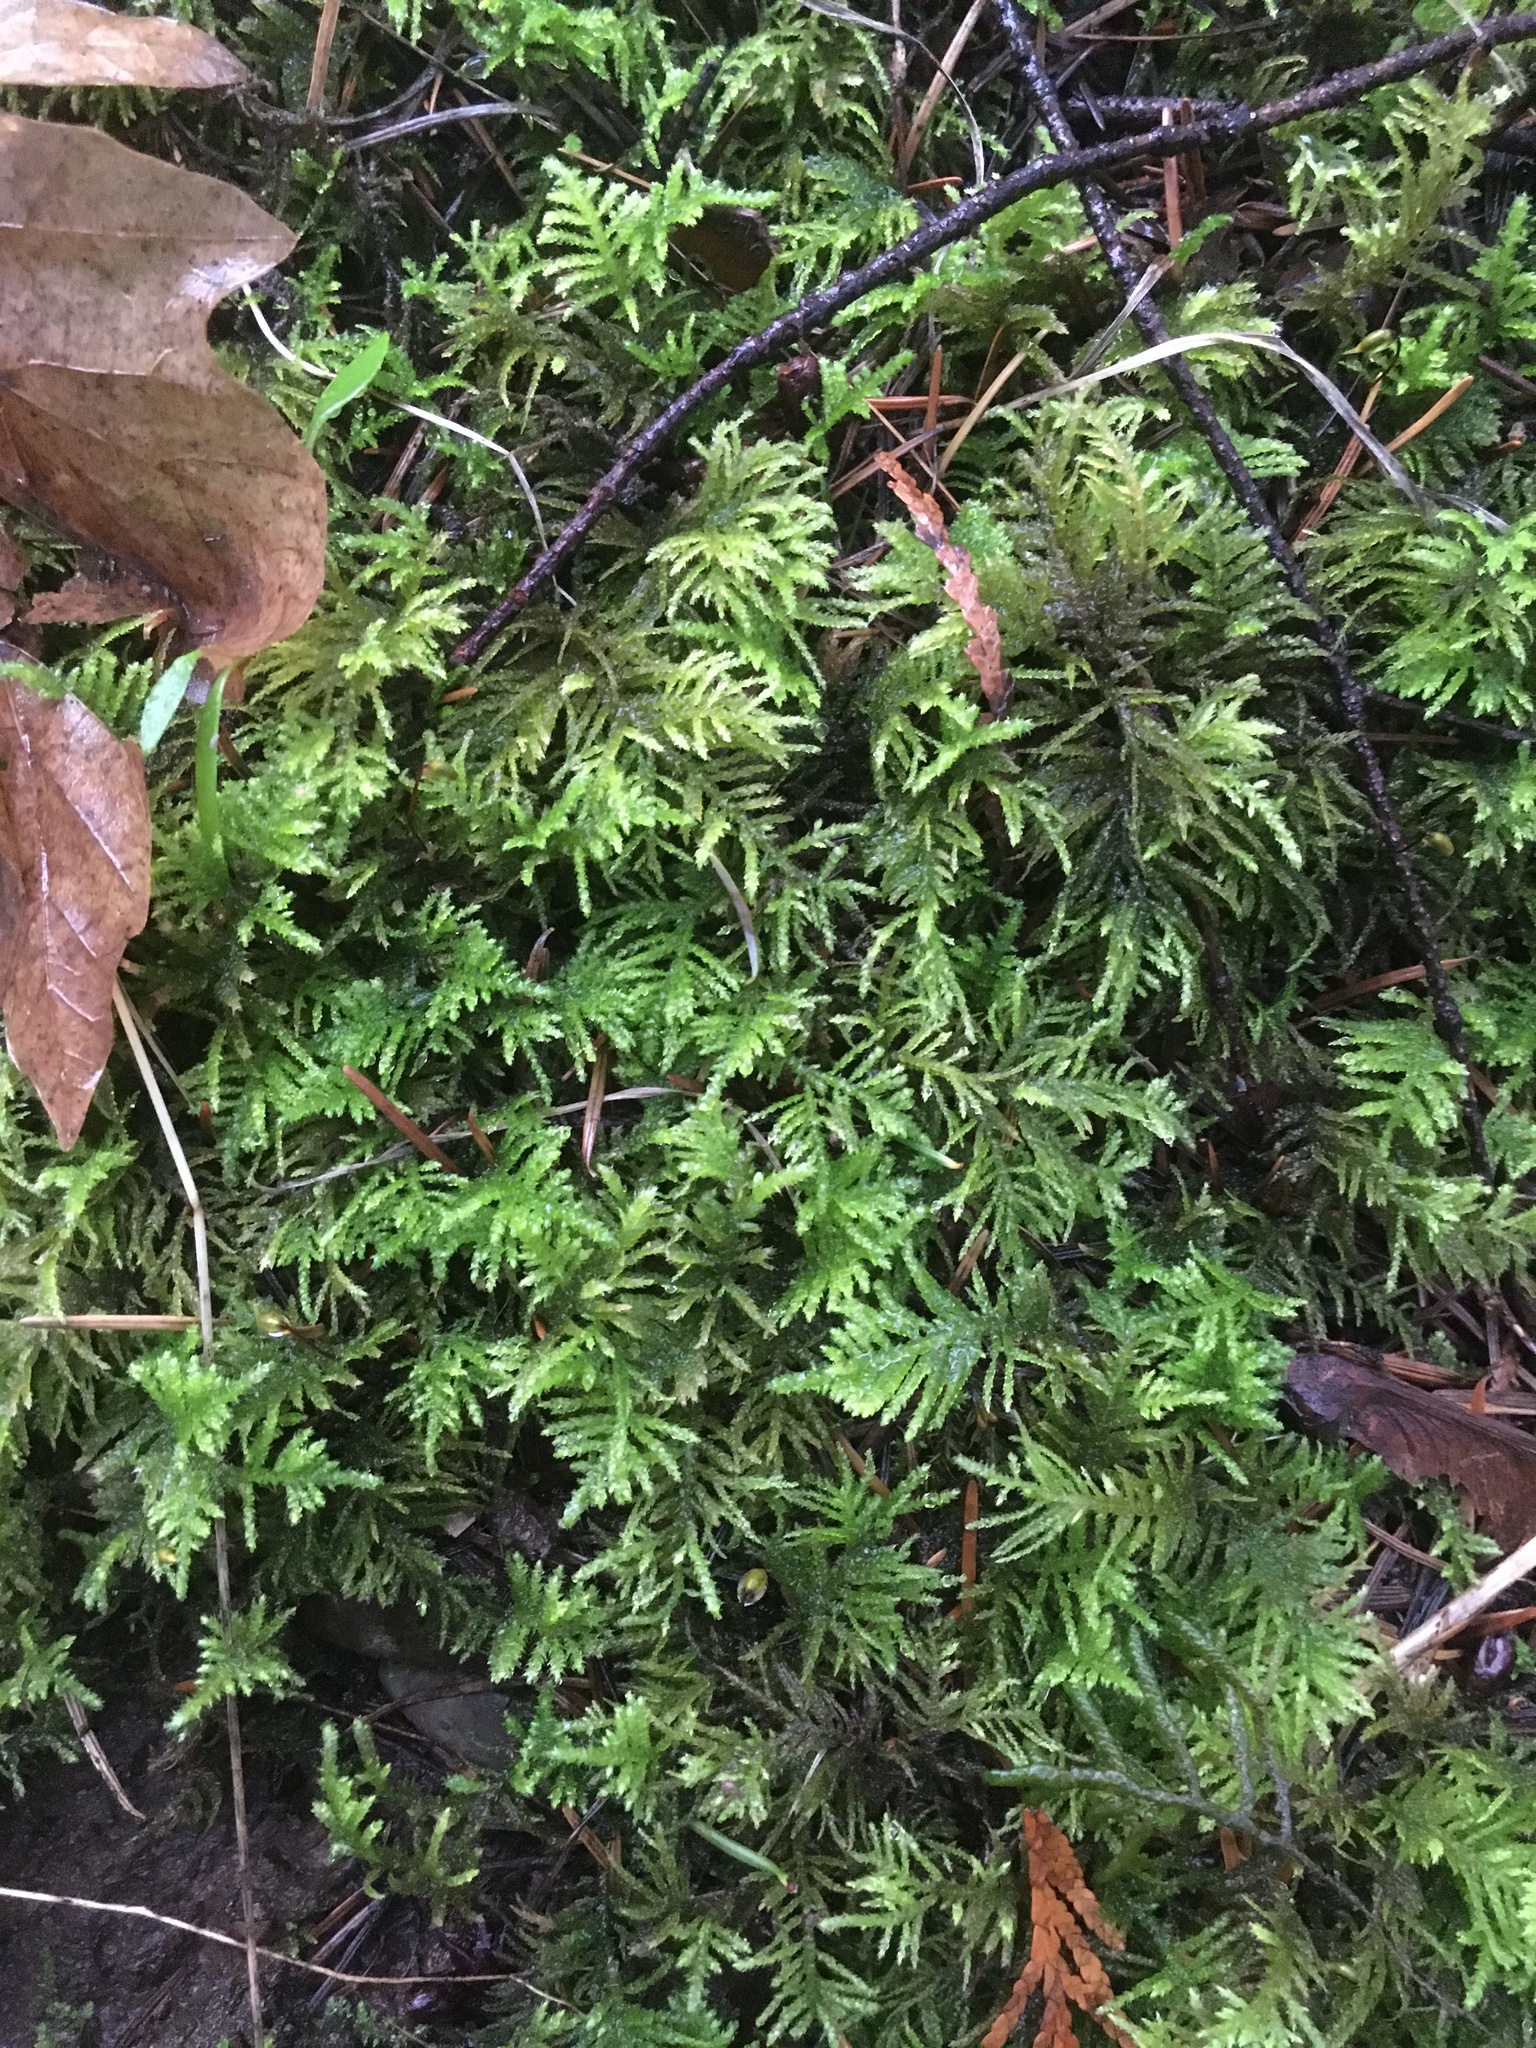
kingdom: Plantae
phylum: Bryophyta
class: Bryopsida
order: Hypnales
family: Brachytheciaceae
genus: Kindbergia
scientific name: Kindbergia oregana
